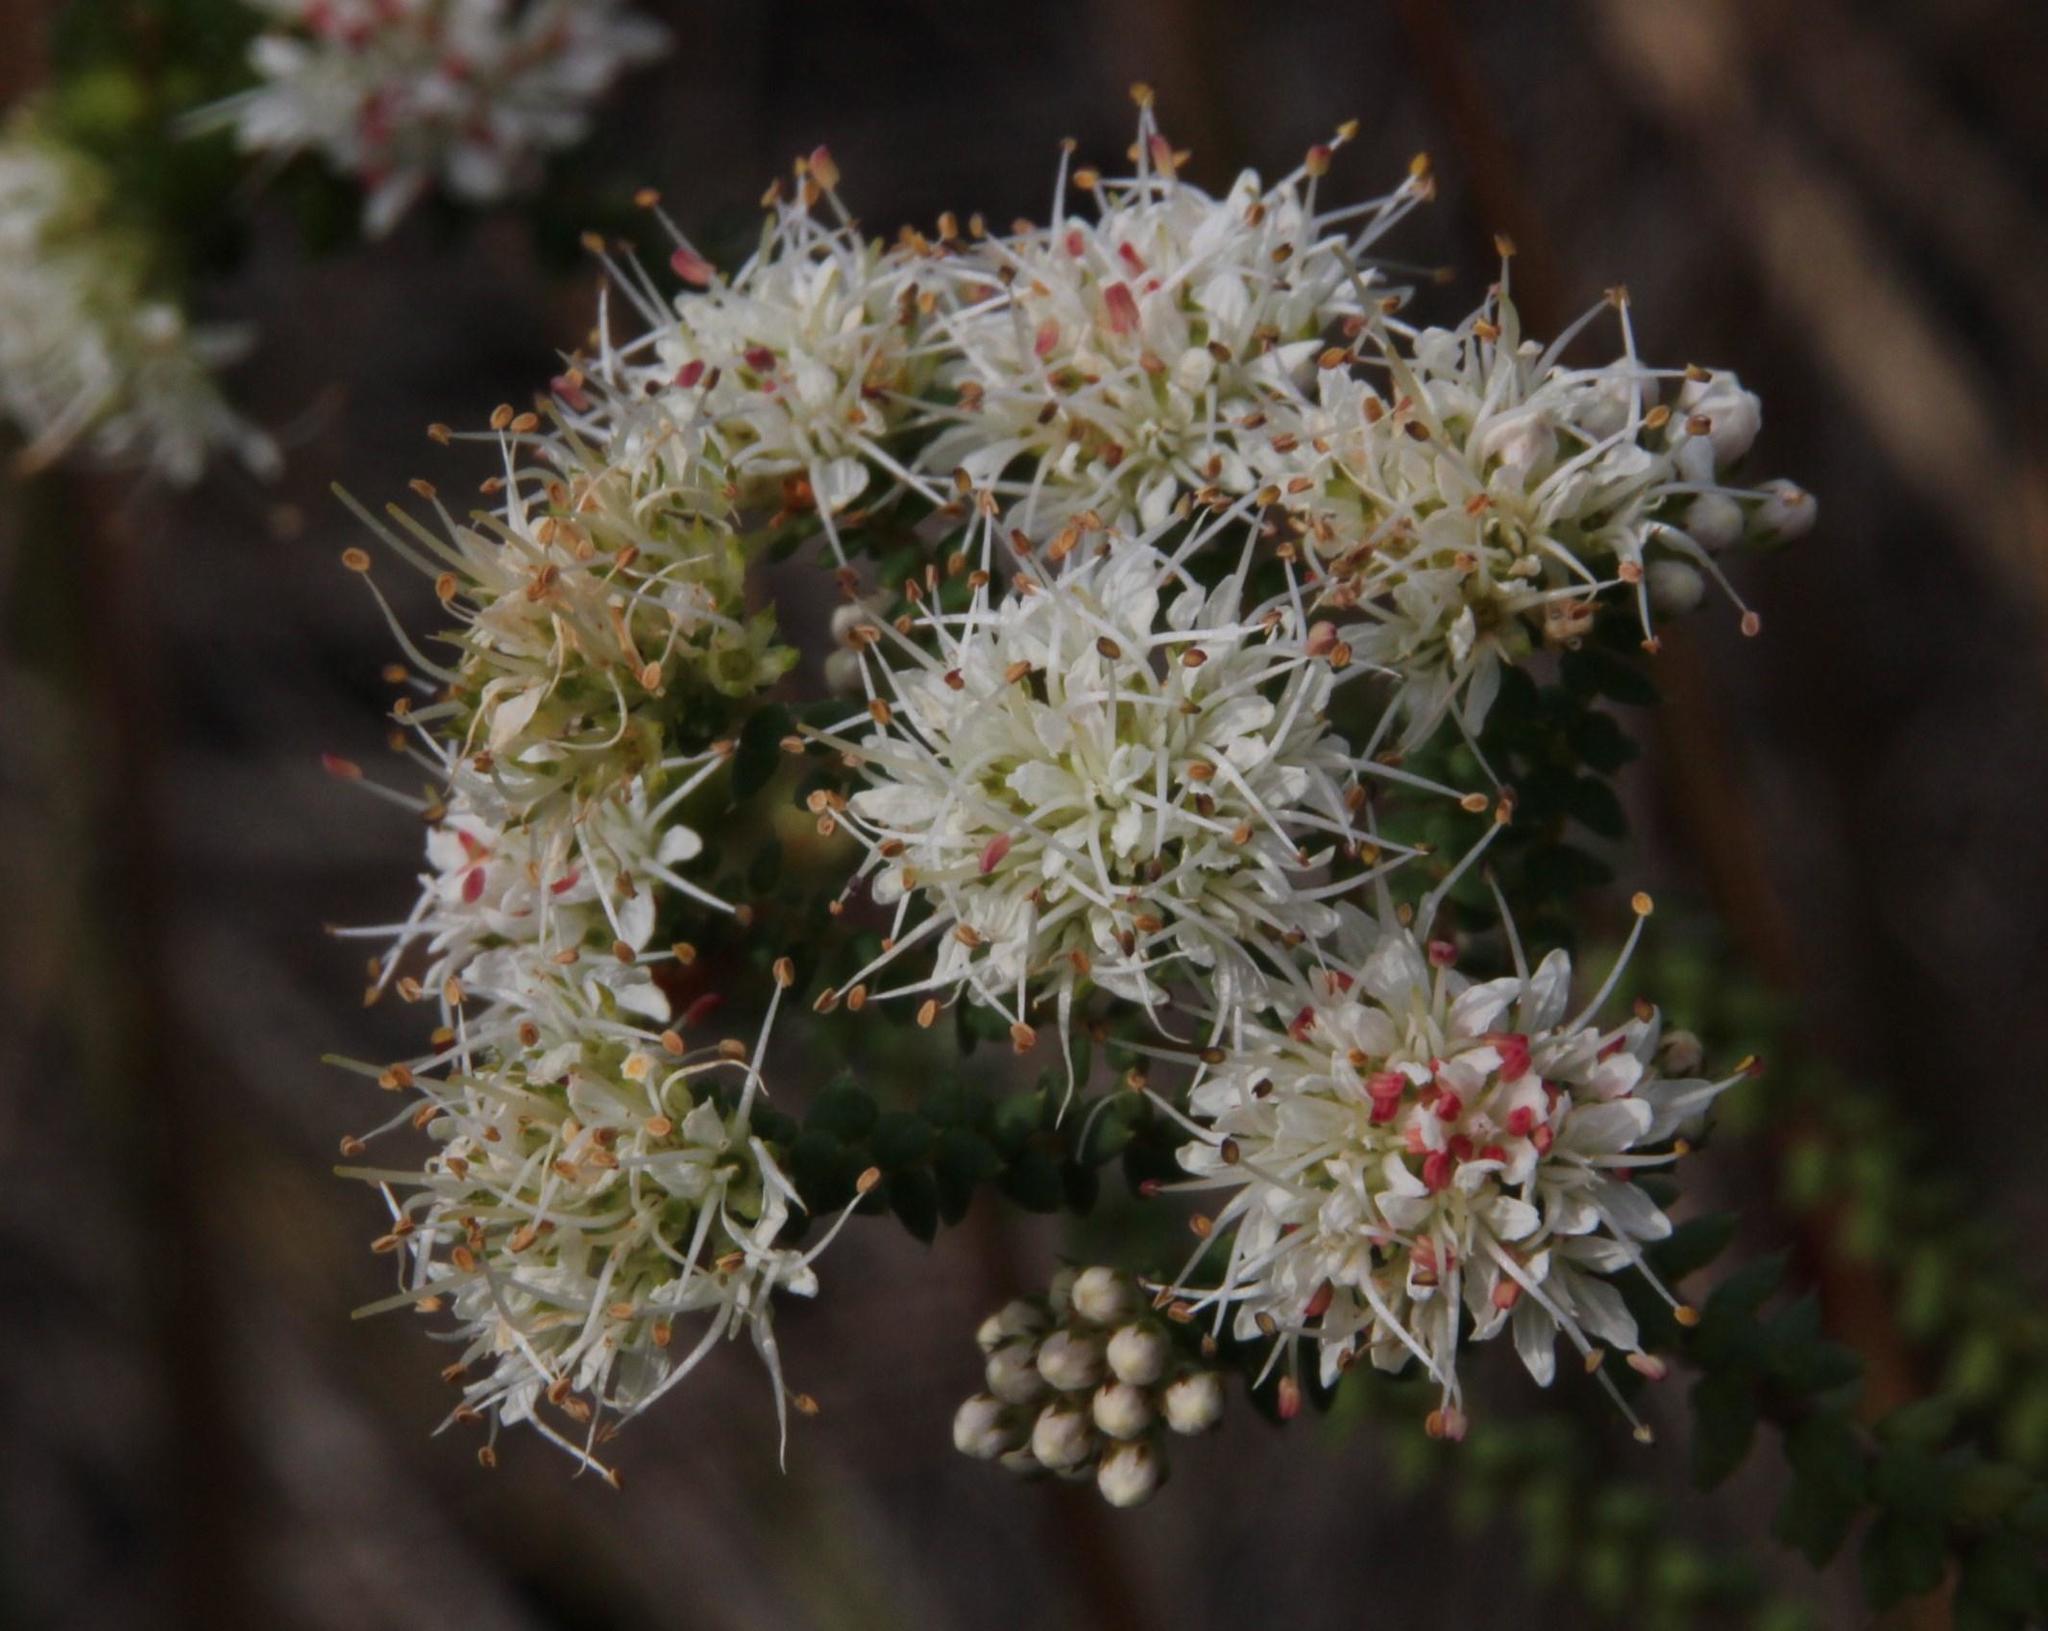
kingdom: Plantae
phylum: Tracheophyta
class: Magnoliopsida
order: Sapindales
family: Rutaceae
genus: Agathosma
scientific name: Agathosma apiculata
